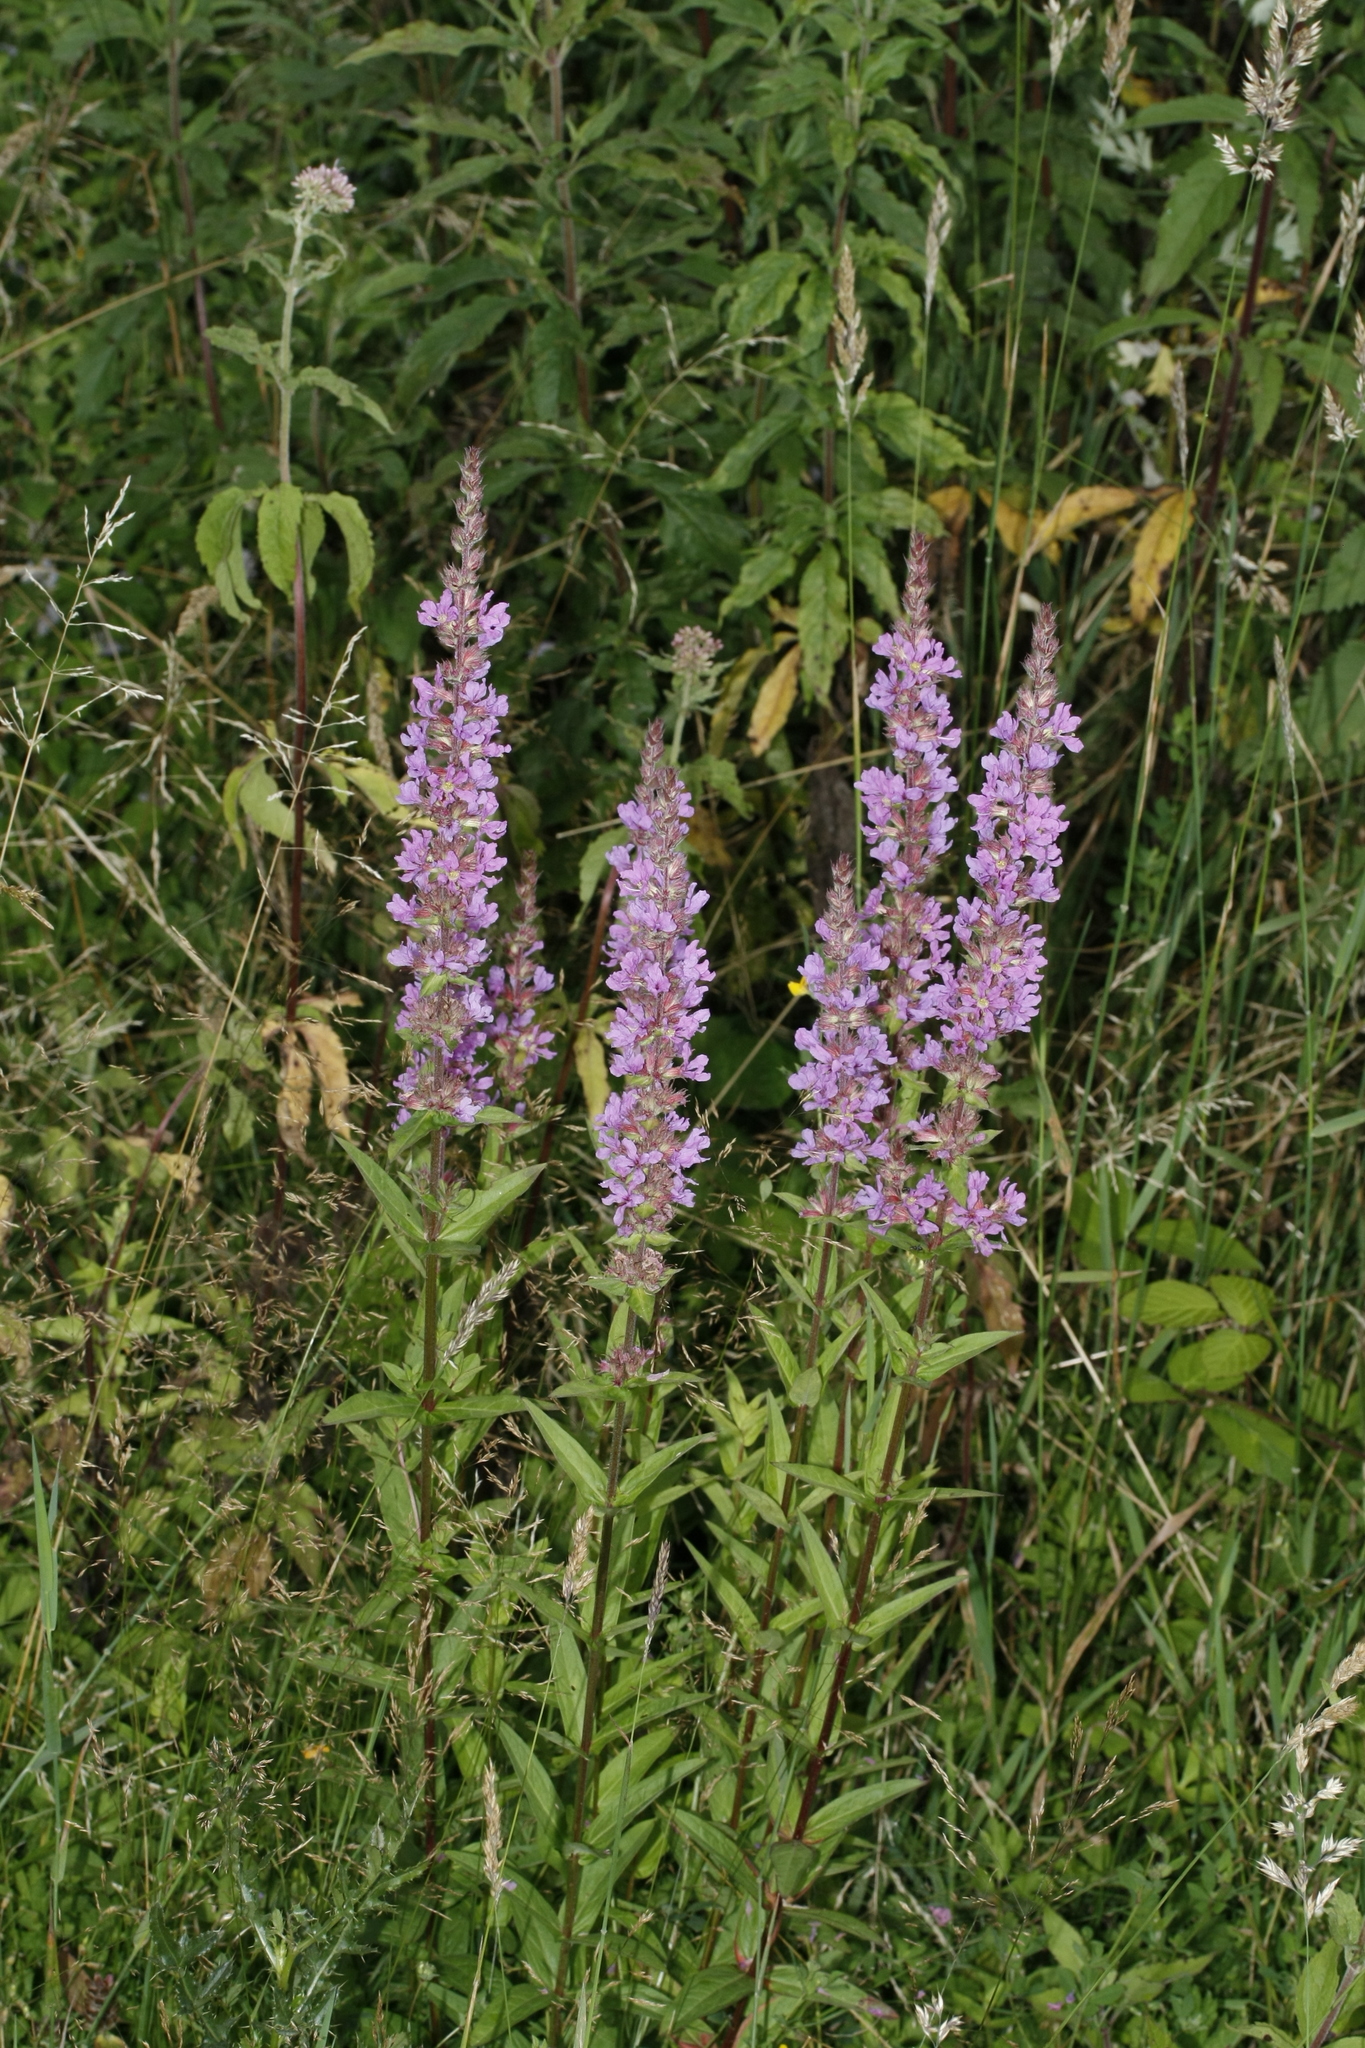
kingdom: Plantae
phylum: Tracheophyta
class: Magnoliopsida
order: Myrtales
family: Lythraceae
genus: Lythrum
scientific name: Lythrum salicaria
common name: Purple loosestrife
